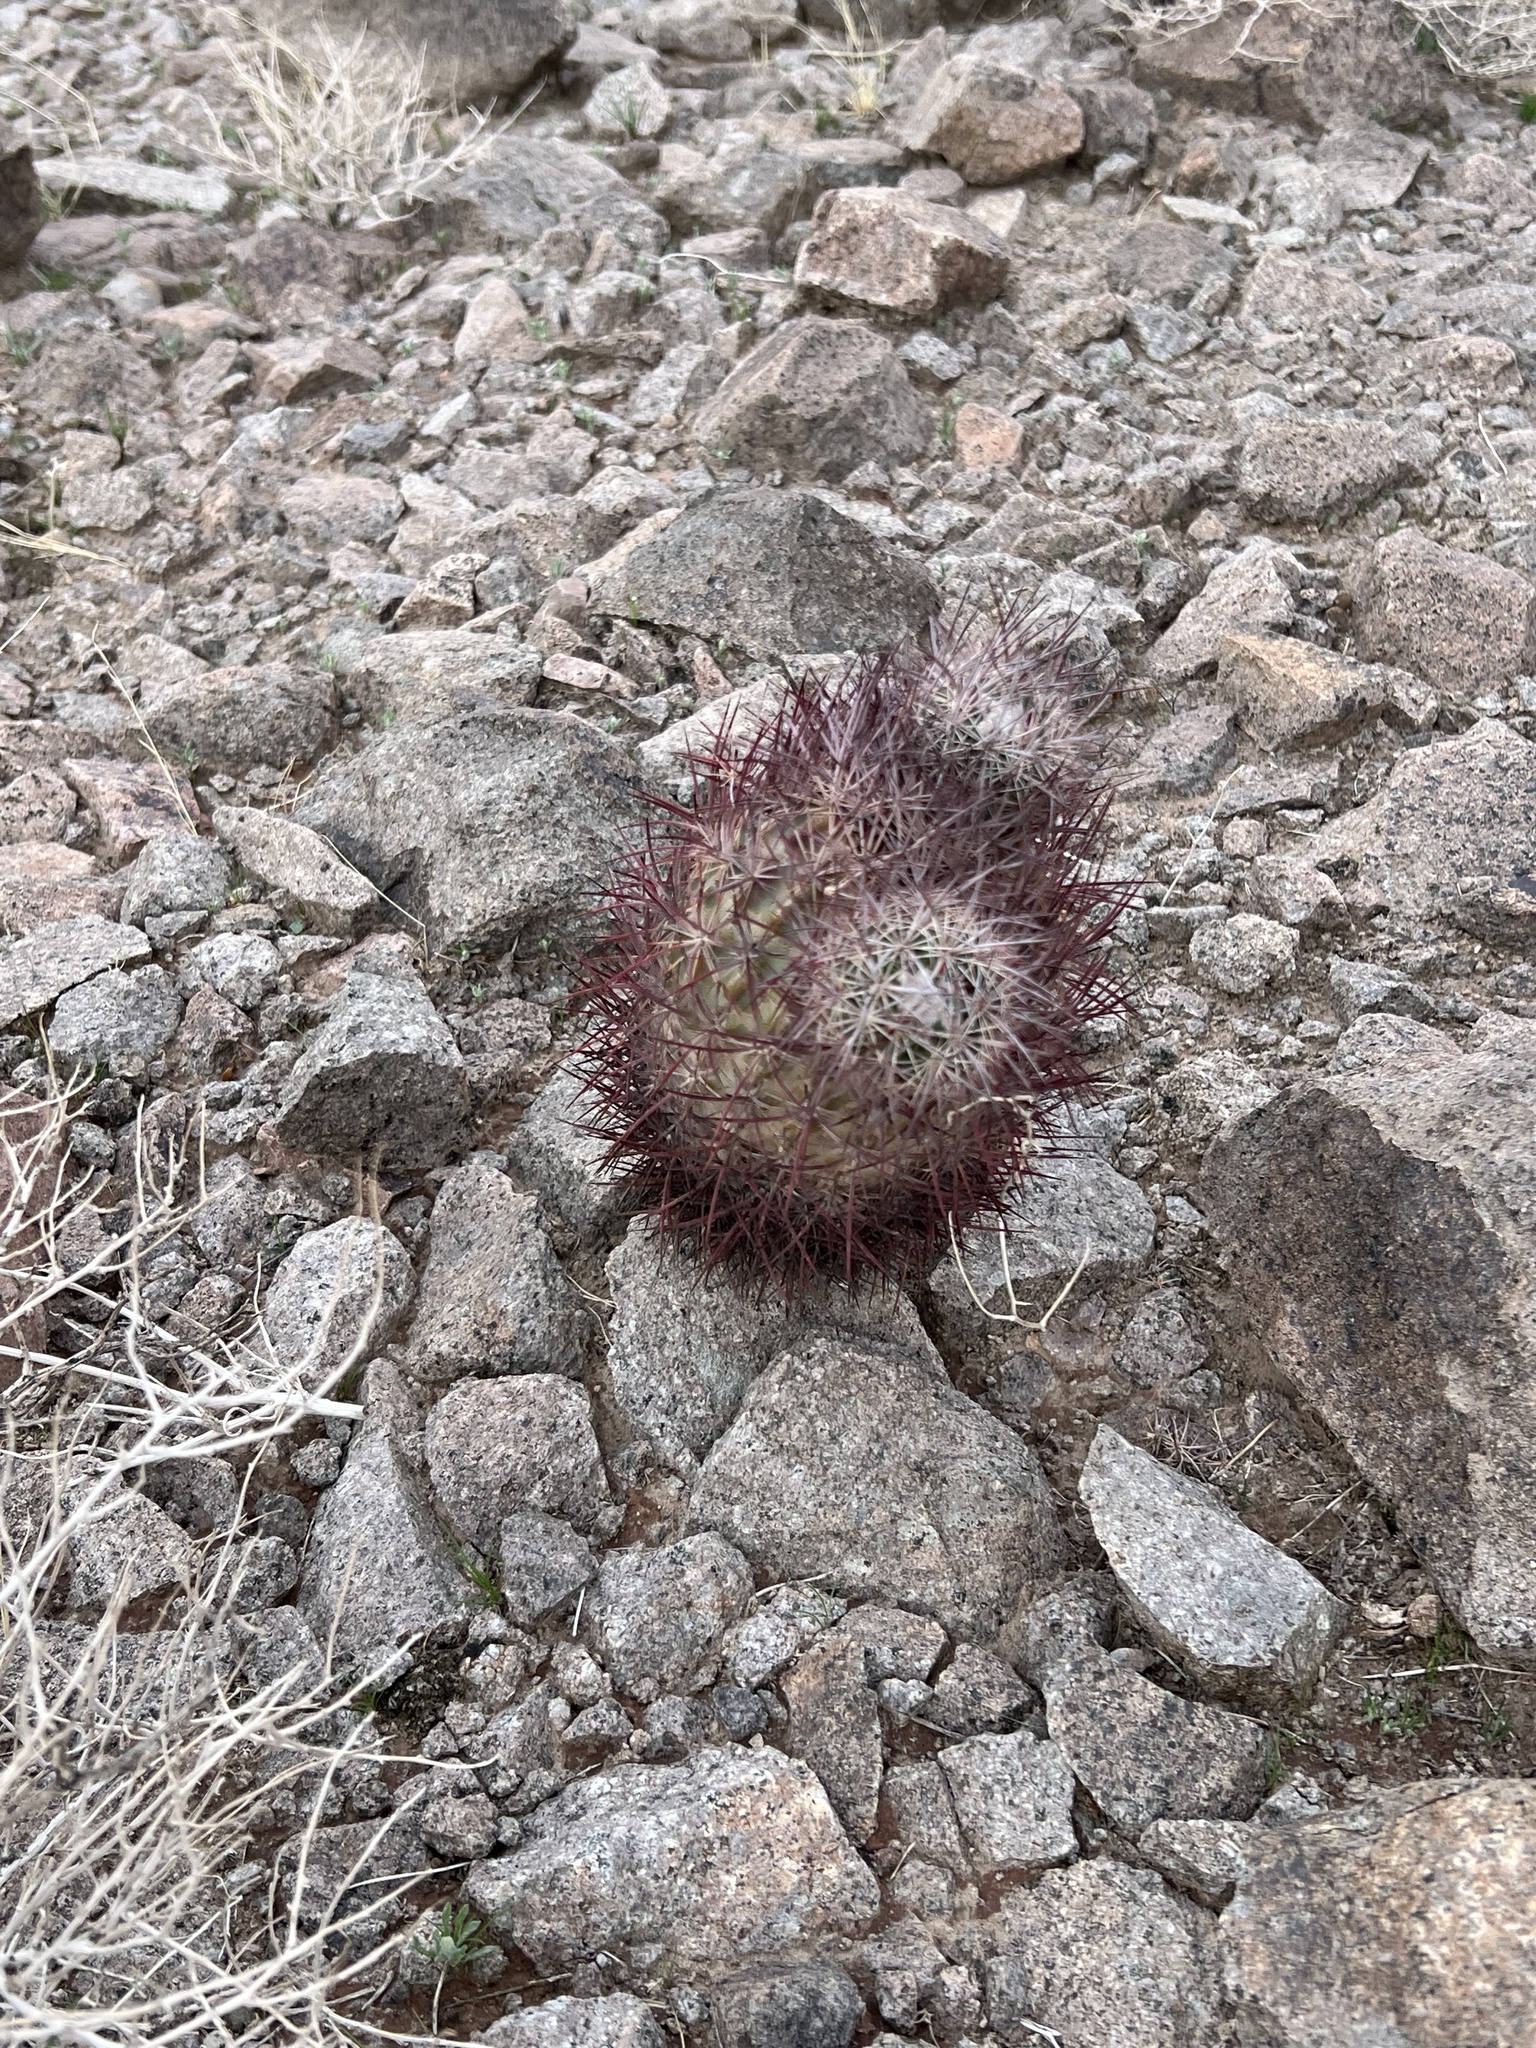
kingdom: Plantae
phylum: Tracheophyta
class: Magnoliopsida
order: Caryophyllales
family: Cactaceae
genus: Sclerocactus
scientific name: Sclerocactus johnsonii
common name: Eight-spine fishhook cactus
